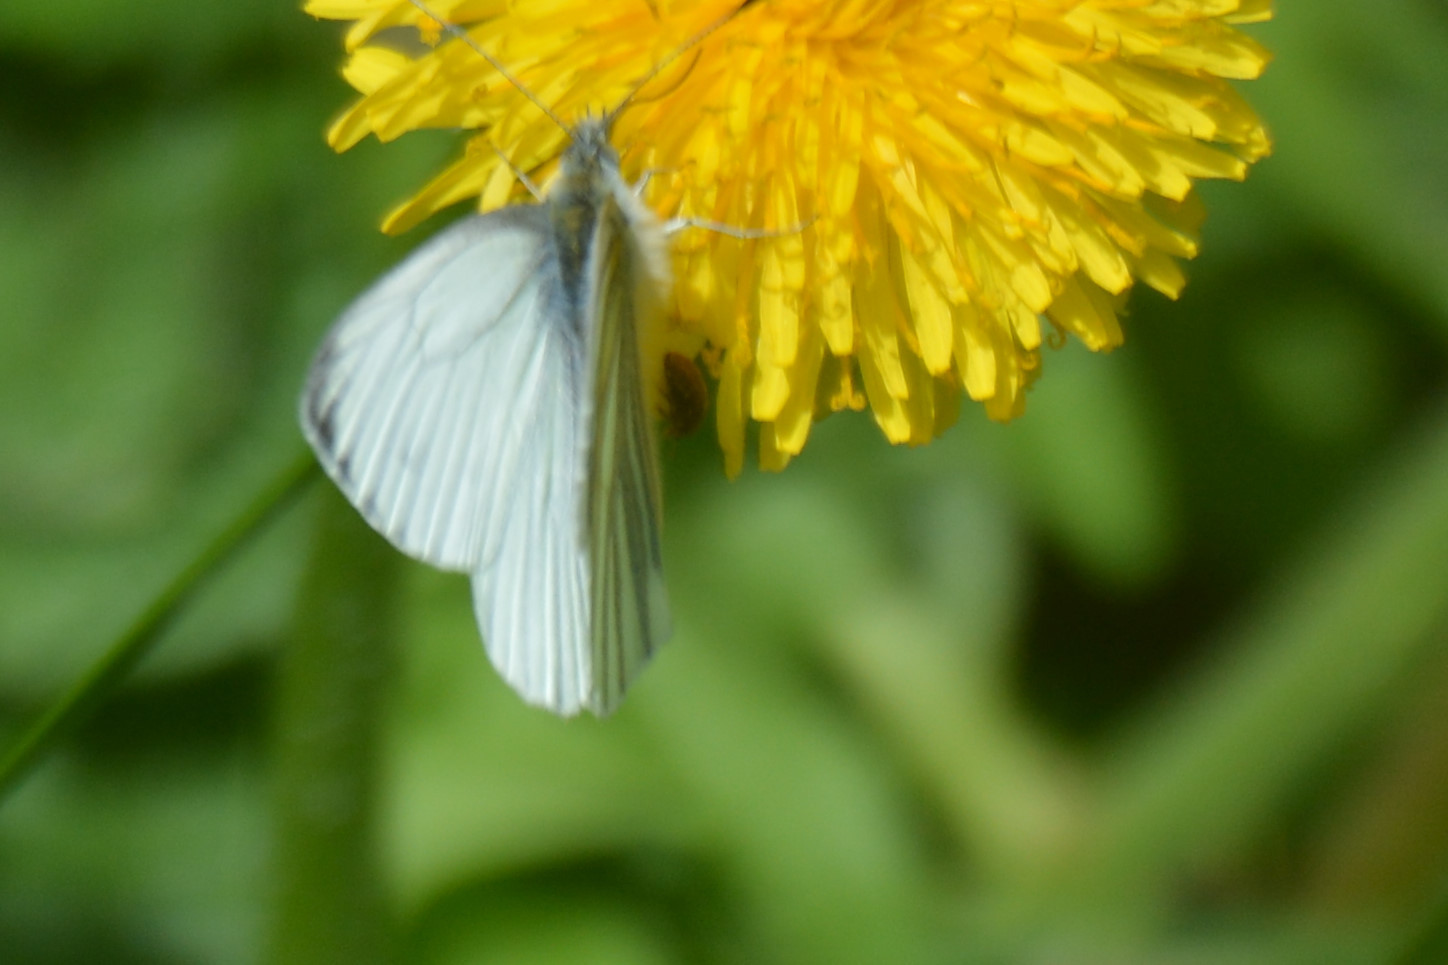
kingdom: Animalia
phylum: Arthropoda
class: Insecta
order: Lepidoptera
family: Pieridae
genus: Pieris
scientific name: Pieris napi
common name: Green-veined white
